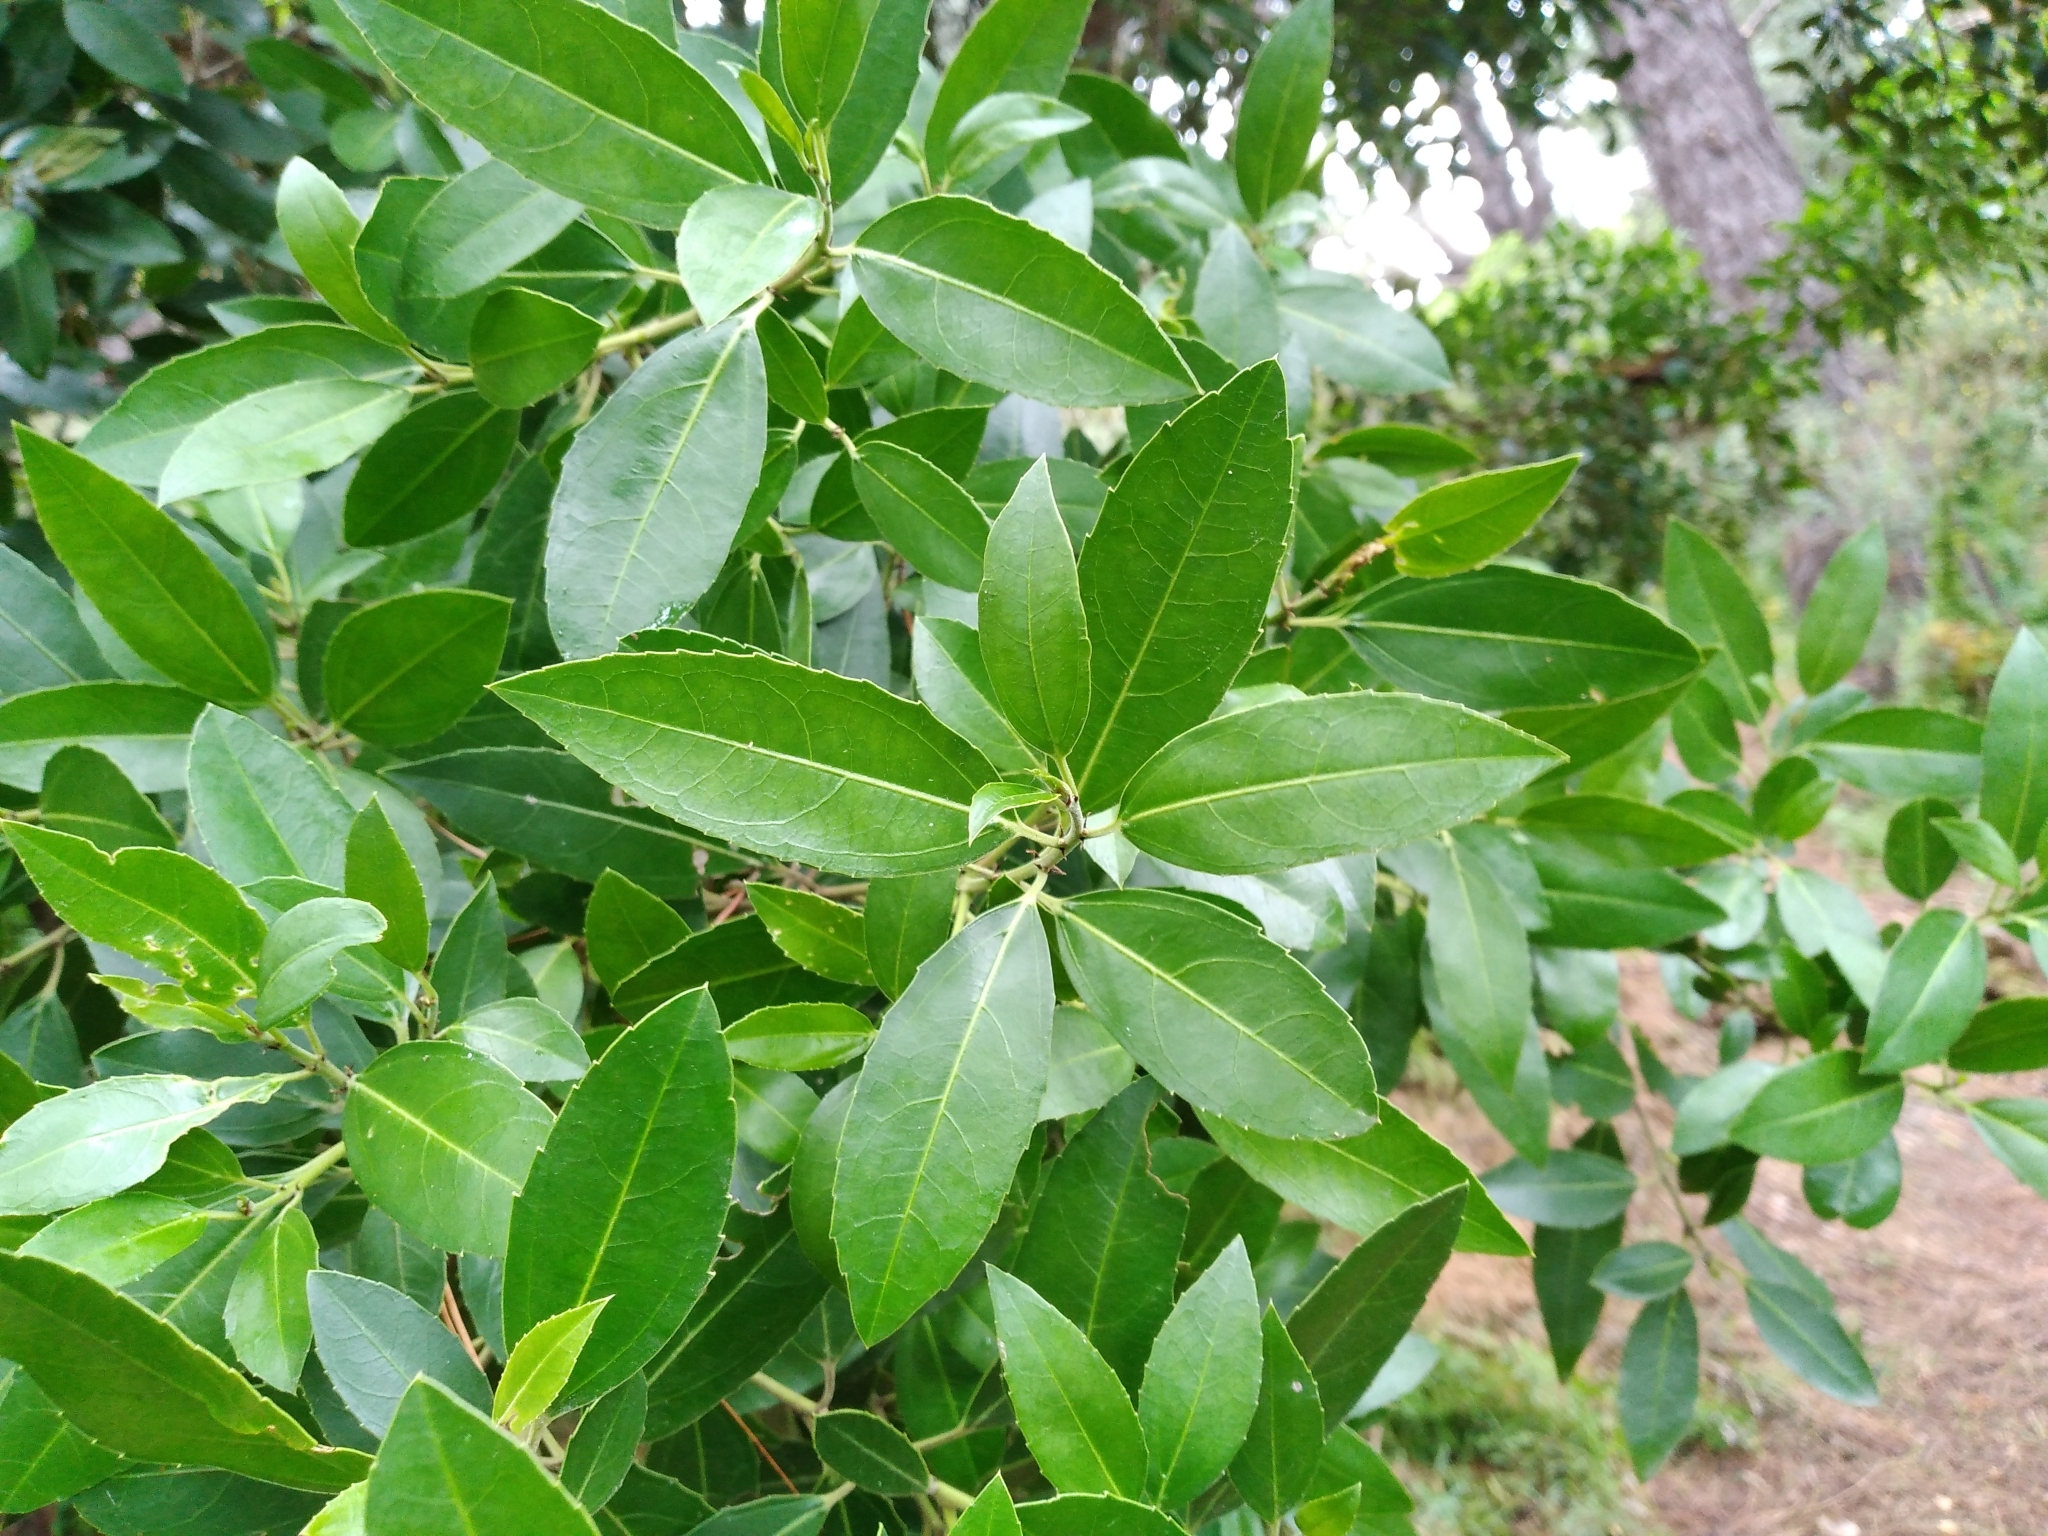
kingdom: Plantae
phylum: Tracheophyta
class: Magnoliopsida
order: Rosales
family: Rhamnaceae
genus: Rhamnus
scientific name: Rhamnus alaternus
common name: Mediterranean buckthorn
